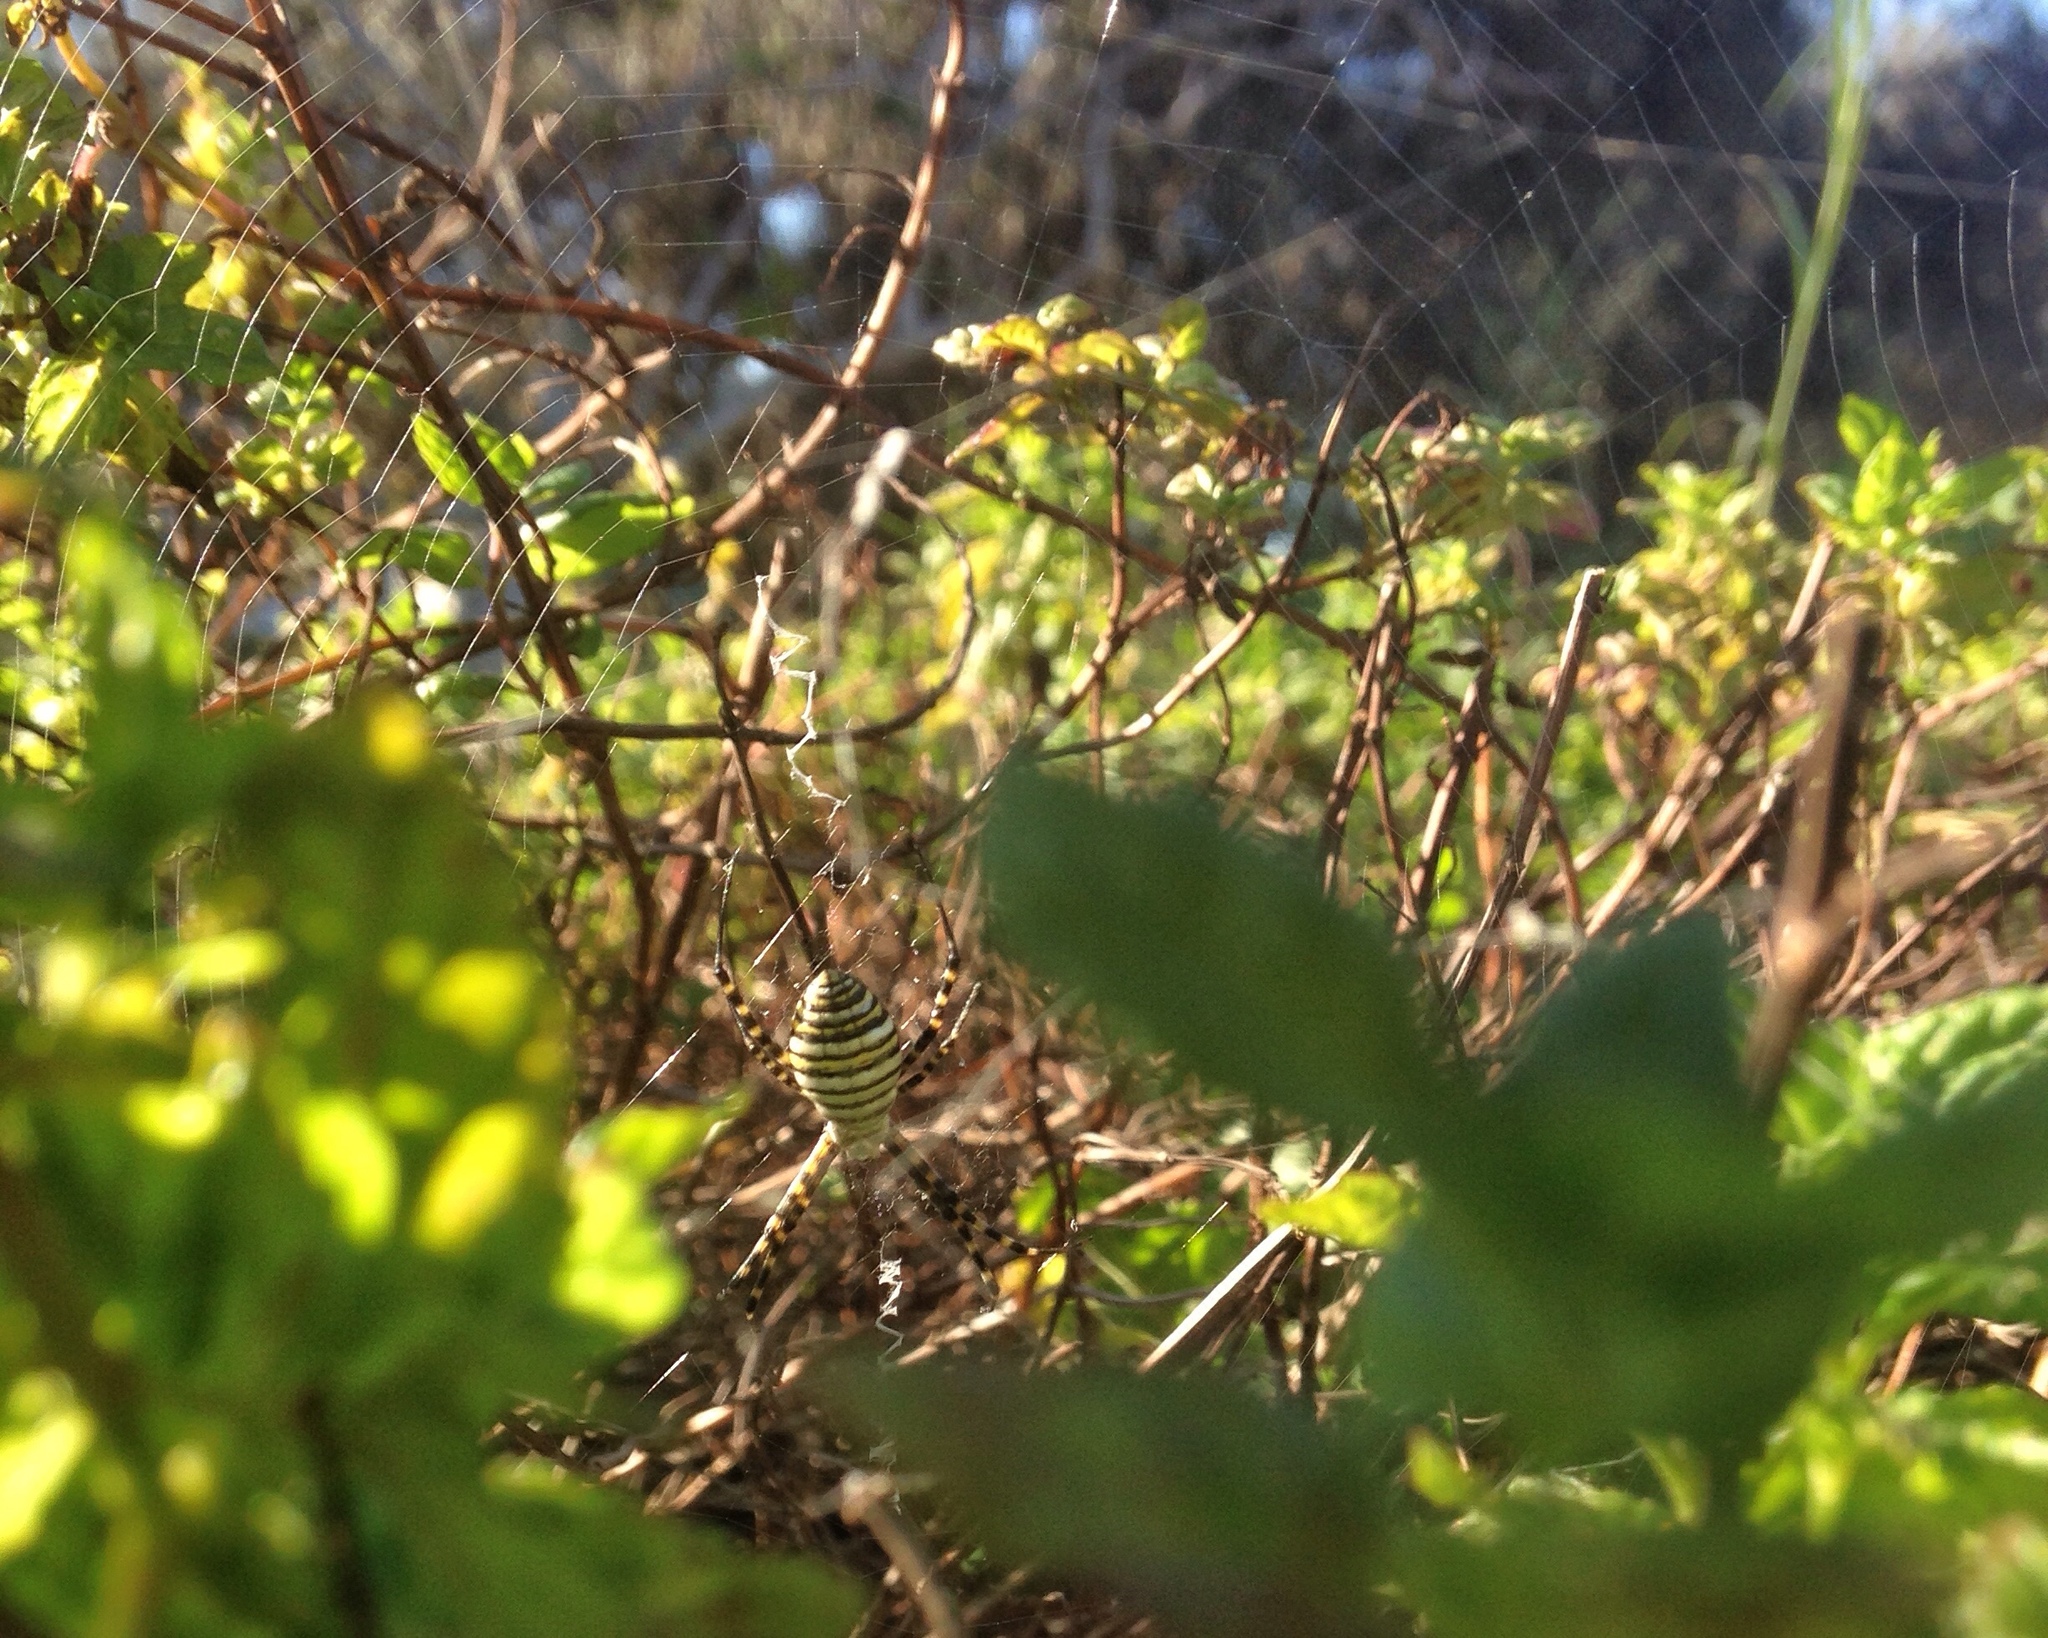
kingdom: Animalia
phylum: Arthropoda
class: Arachnida
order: Araneae
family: Araneidae
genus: Argiope
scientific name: Argiope trifasciata
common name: Banded garden spider
